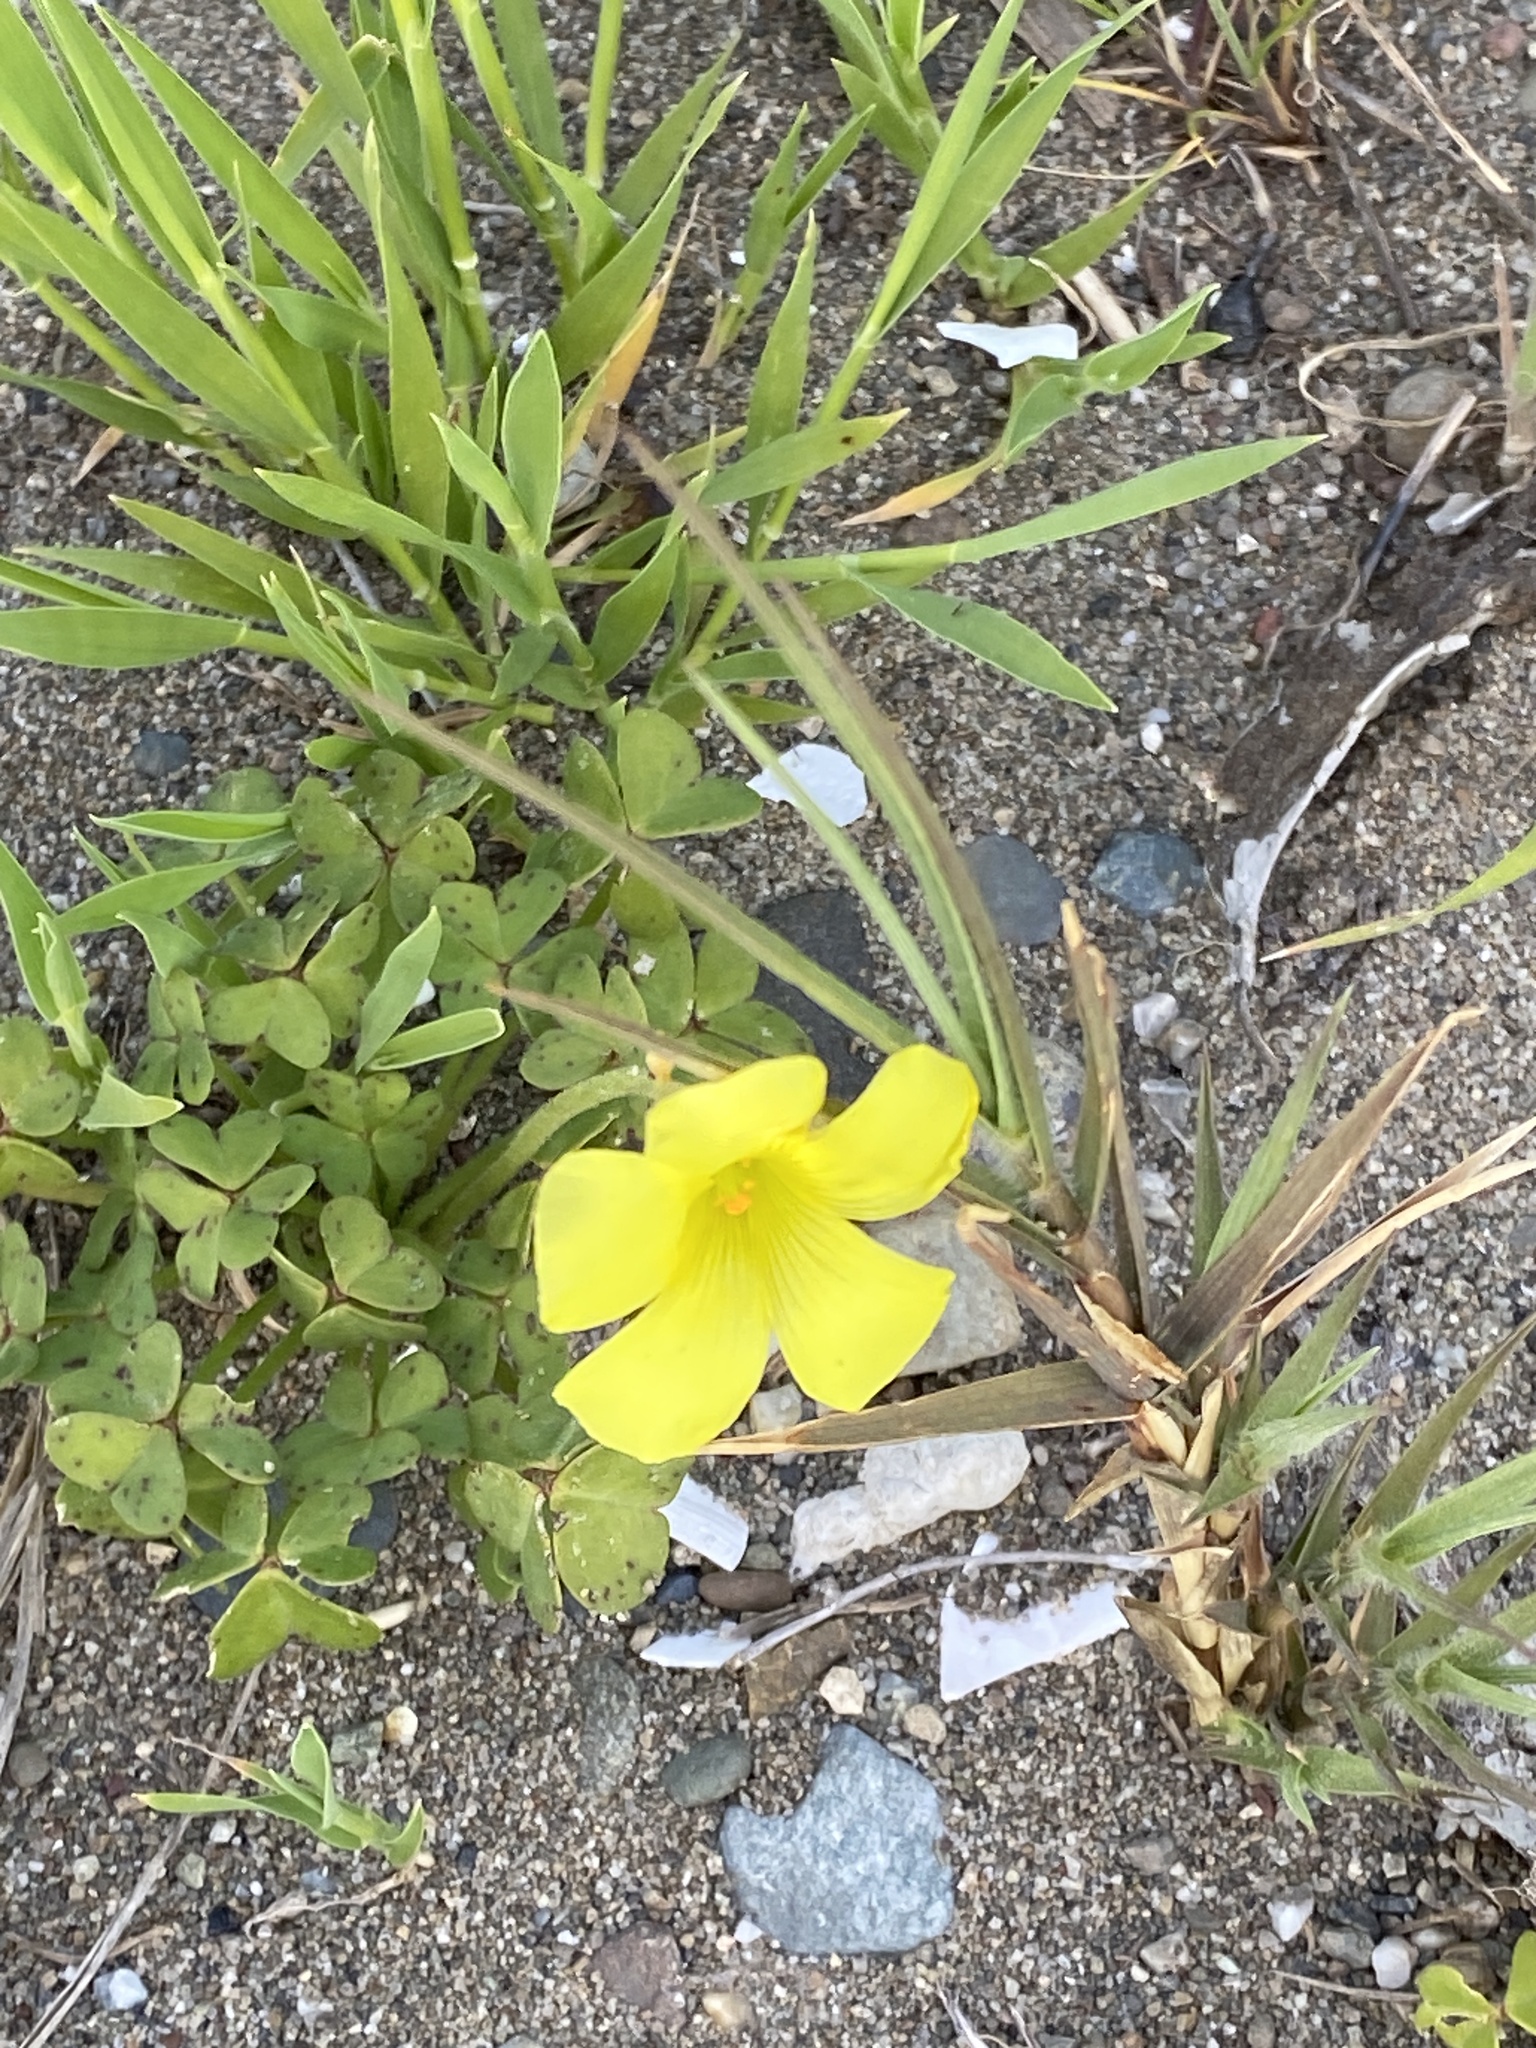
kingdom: Plantae
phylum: Tracheophyta
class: Magnoliopsida
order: Oxalidales
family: Oxalidaceae
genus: Oxalis
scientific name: Oxalis pes-caprae
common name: Bermuda-buttercup
